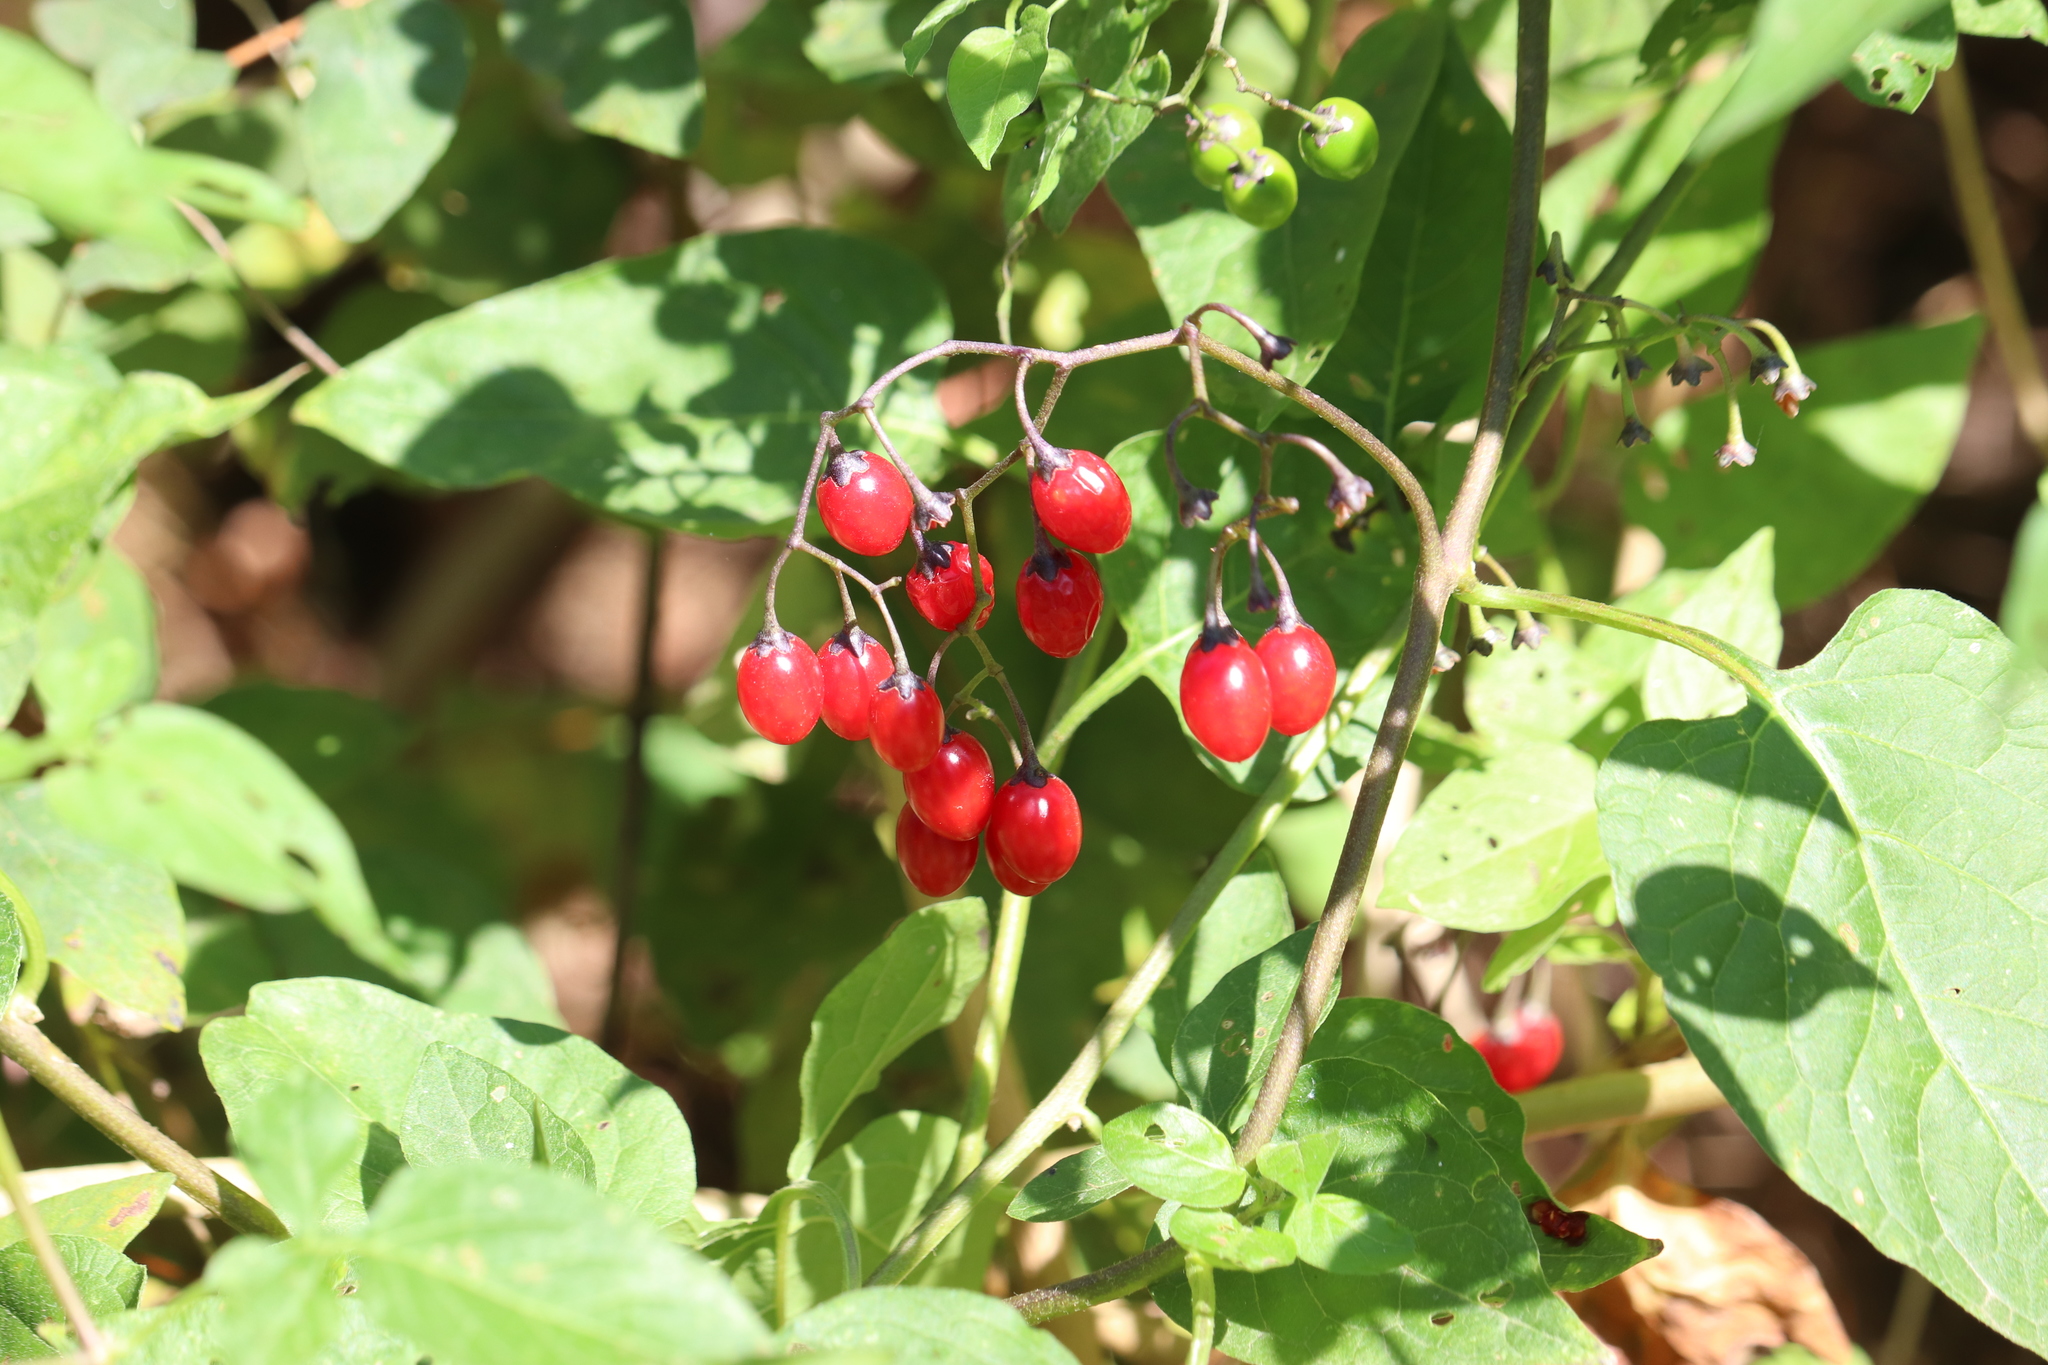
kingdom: Plantae
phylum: Tracheophyta
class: Magnoliopsida
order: Solanales
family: Solanaceae
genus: Solanum
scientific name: Solanum dulcamara
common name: Climbing nightshade
